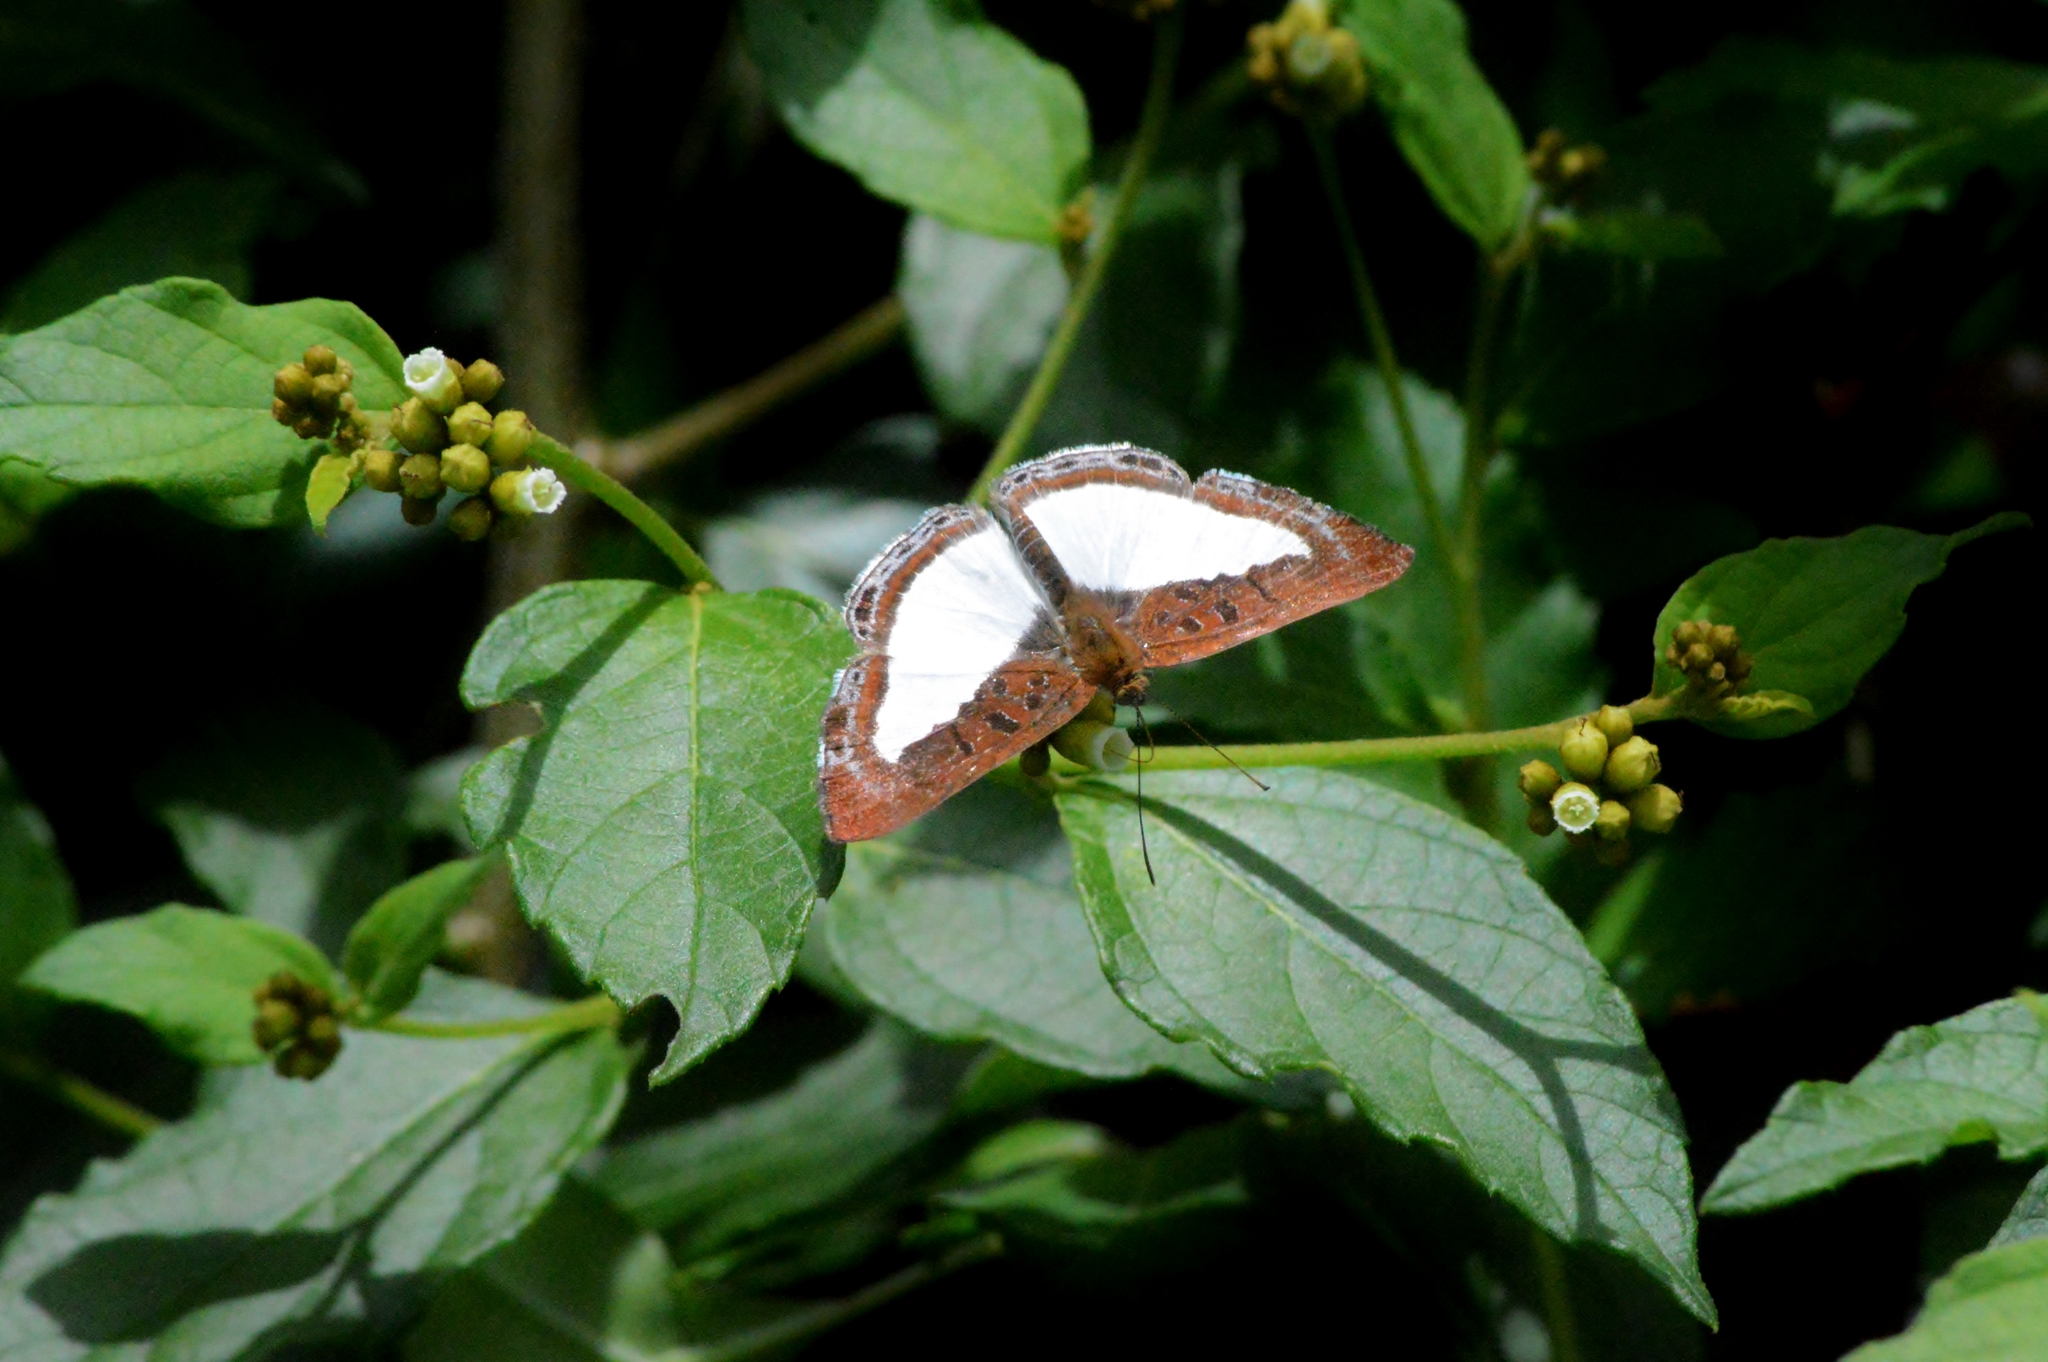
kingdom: Animalia
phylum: Arthropoda
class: Insecta
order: Lepidoptera
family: Riodinidae
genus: Nymula
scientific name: Nymula calyce
